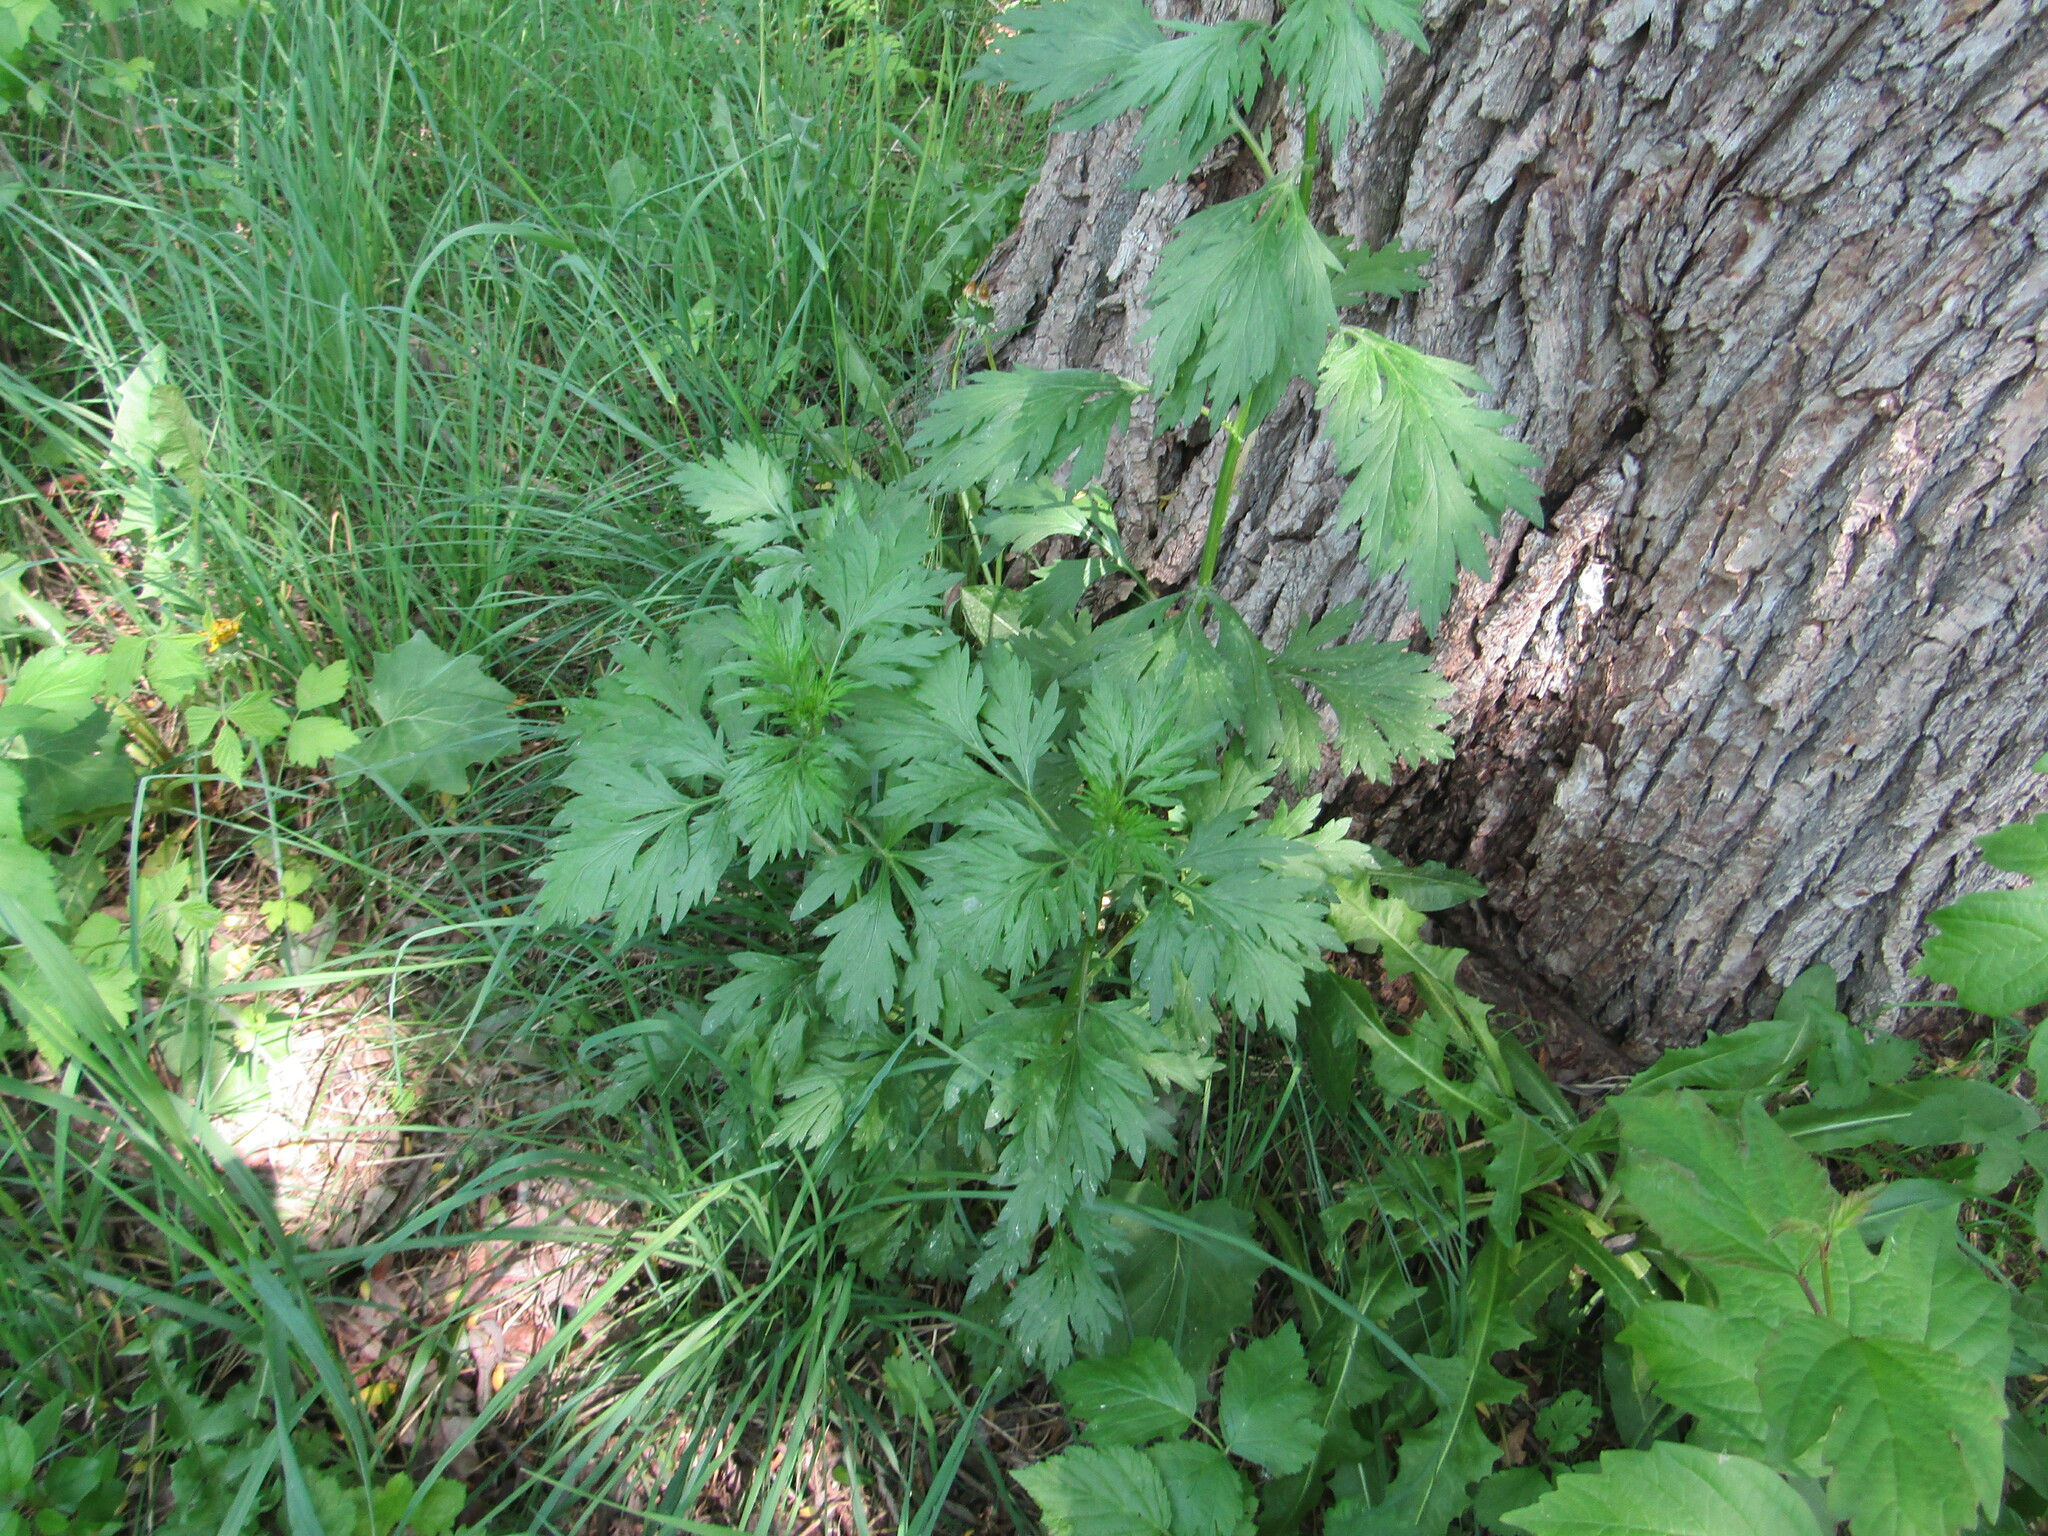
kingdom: Plantae
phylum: Tracheophyta
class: Magnoliopsida
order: Asterales
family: Asteraceae
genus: Artemisia
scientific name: Artemisia vulgaris
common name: Mugwort
